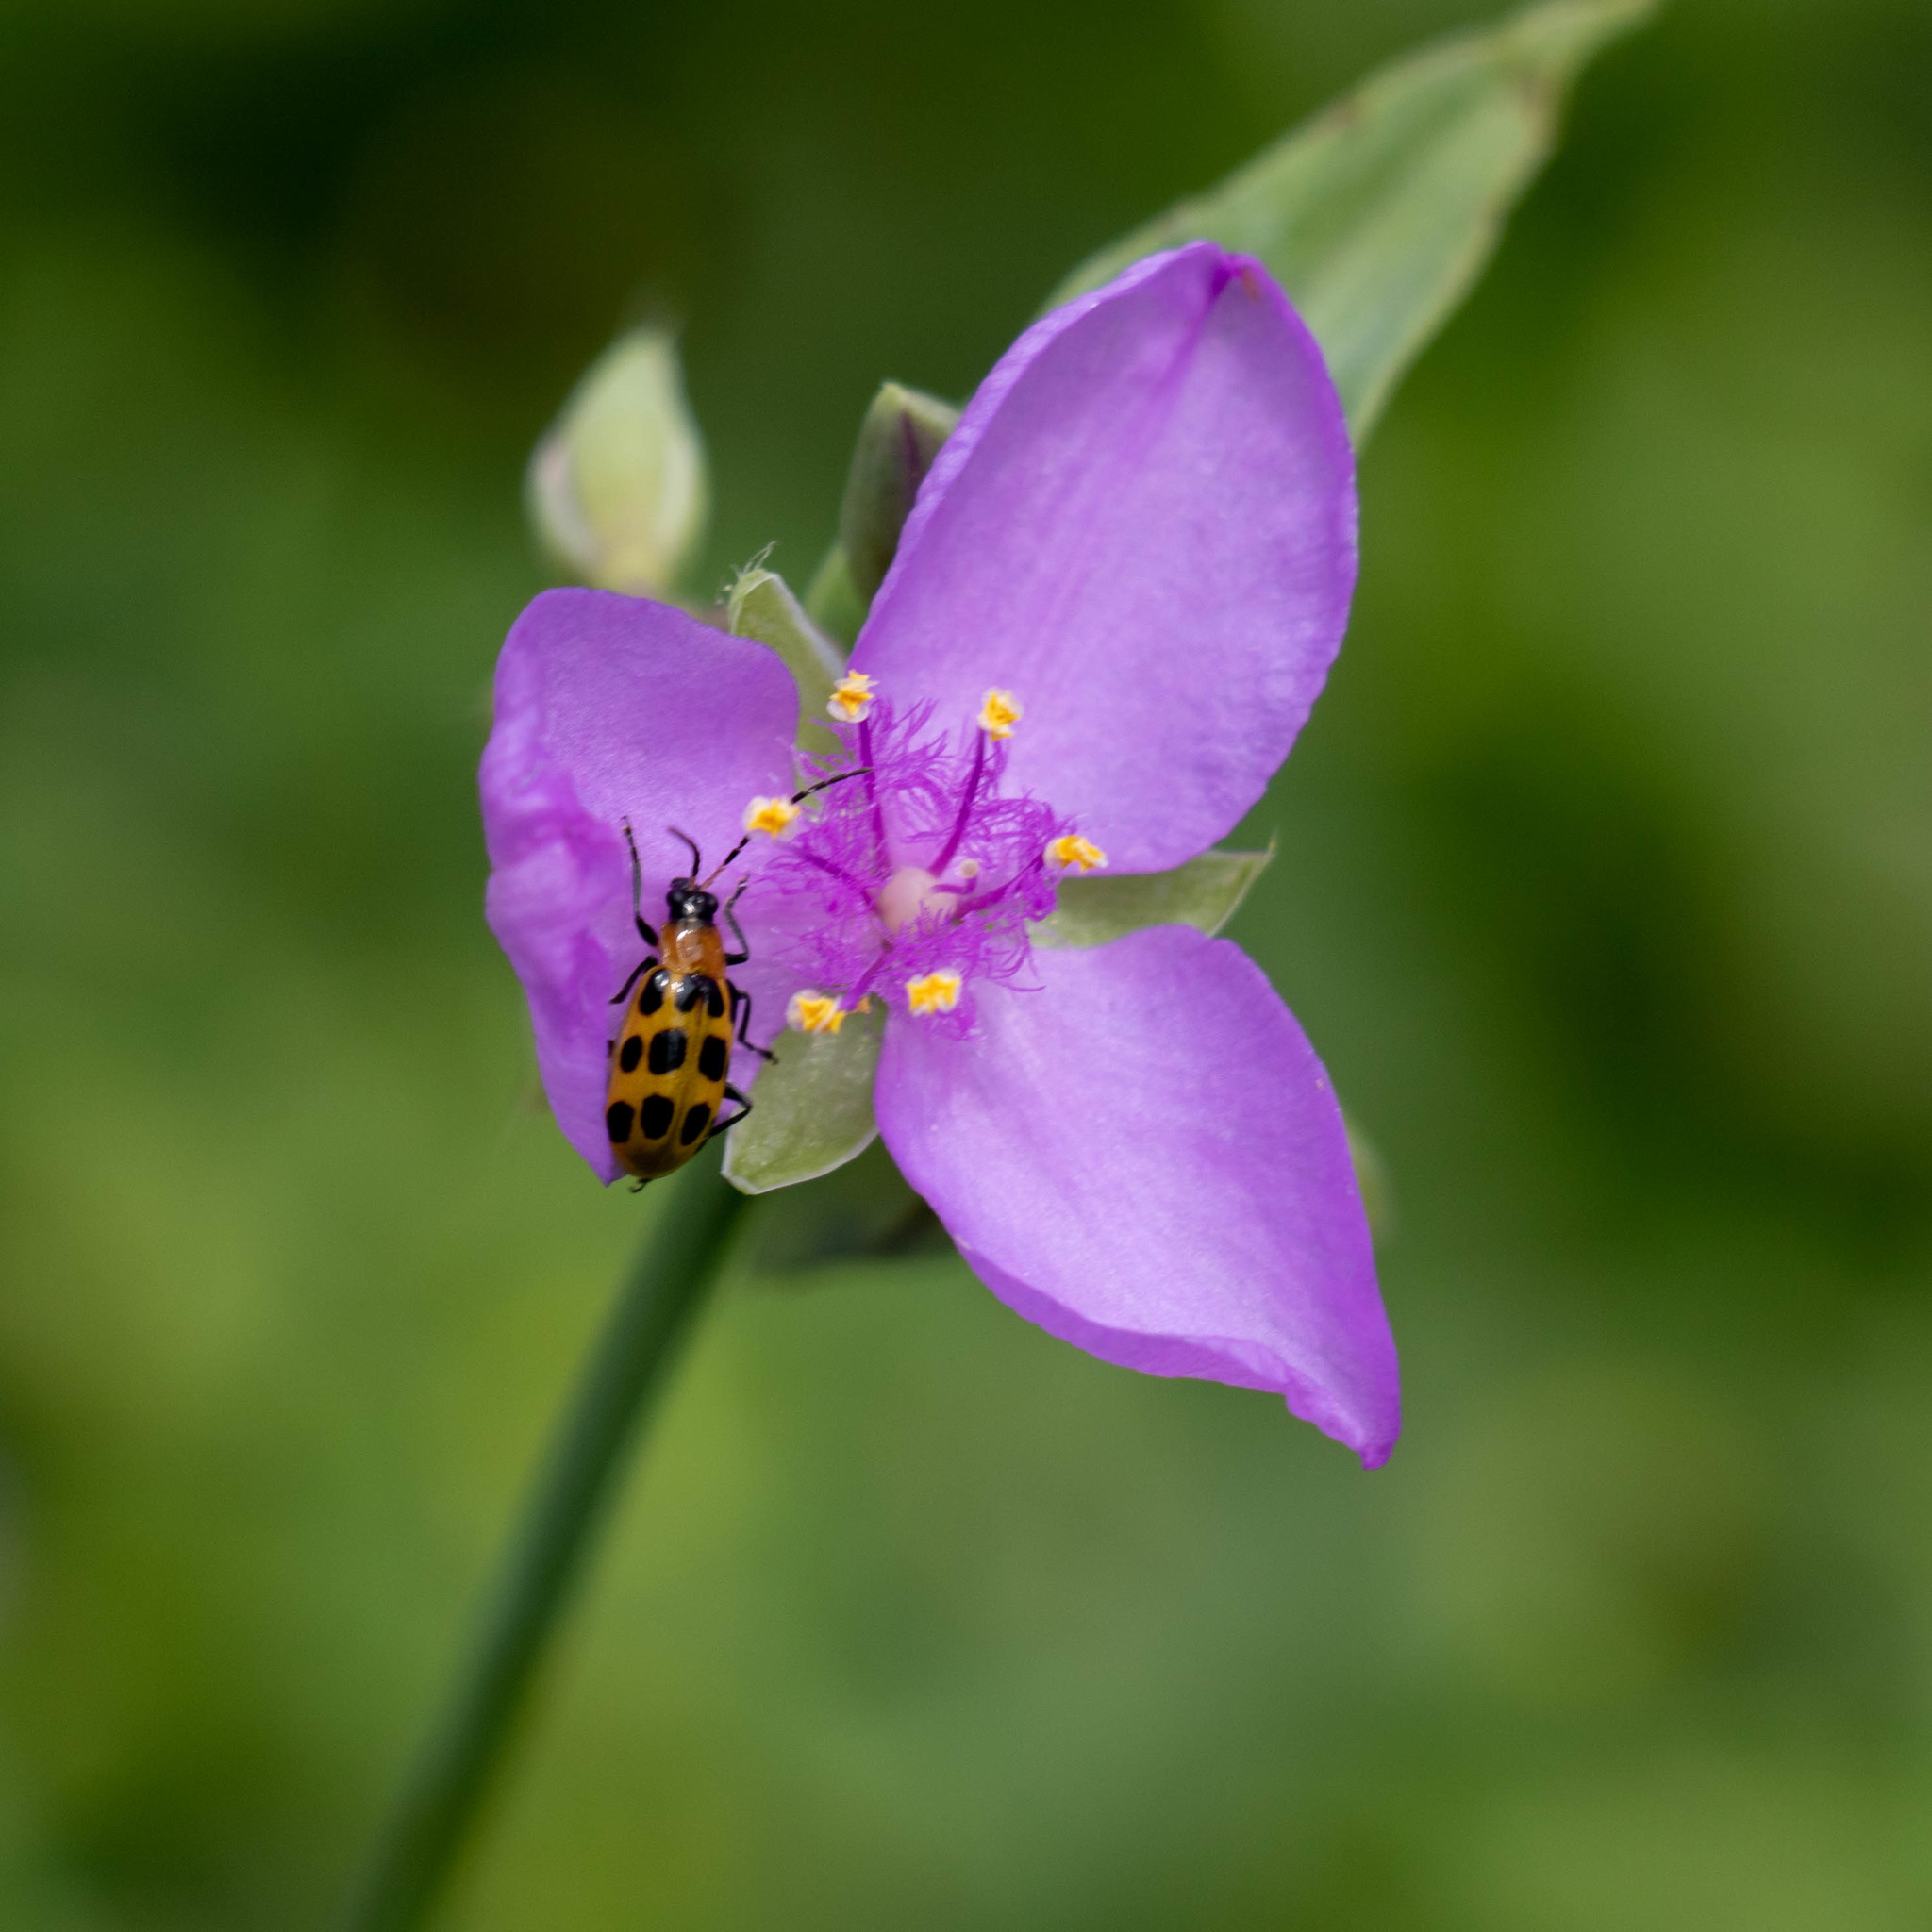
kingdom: Animalia
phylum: Arthropoda
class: Insecta
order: Coleoptera
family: Chrysomelidae
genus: Diabrotica
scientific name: Diabrotica undecimpunctata
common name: Spotted cucumber beetle
